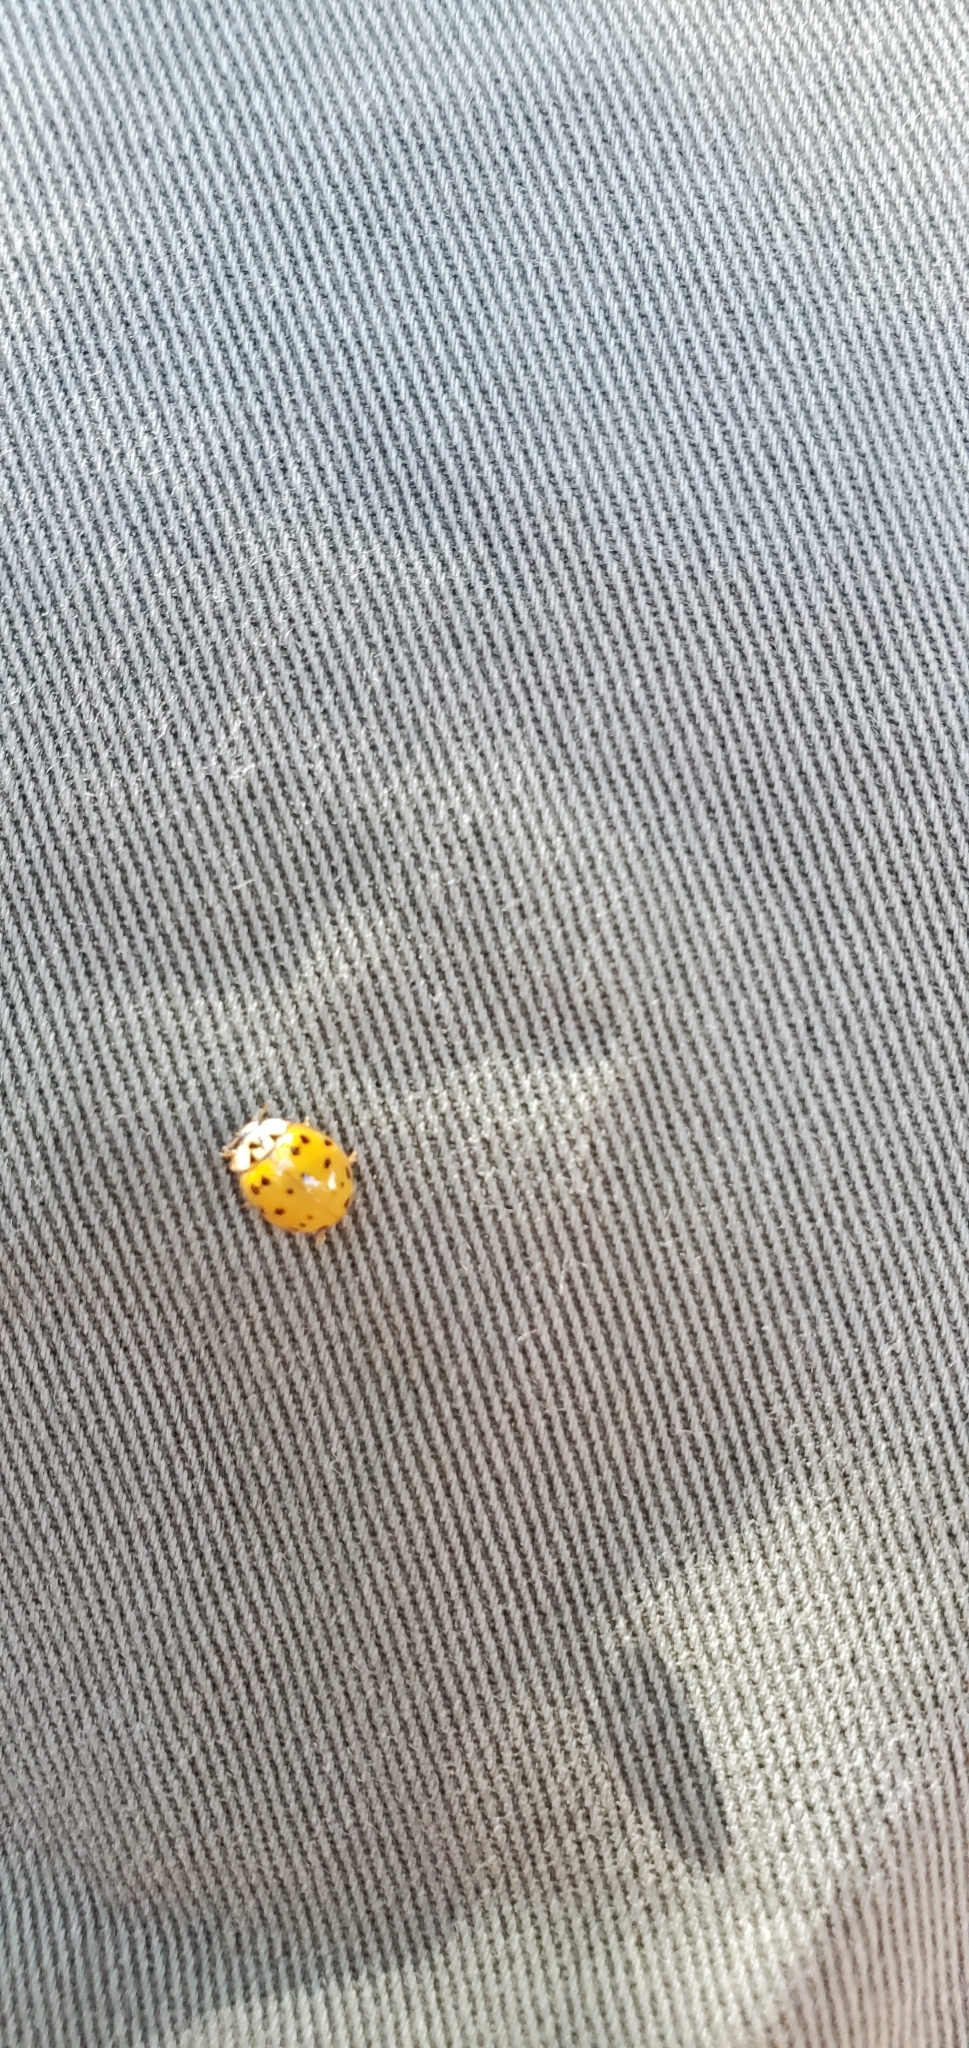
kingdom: Animalia
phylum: Arthropoda
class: Insecta
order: Coleoptera
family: Coccinellidae
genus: Harmonia
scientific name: Harmonia axyridis
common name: Harlequin ladybird
